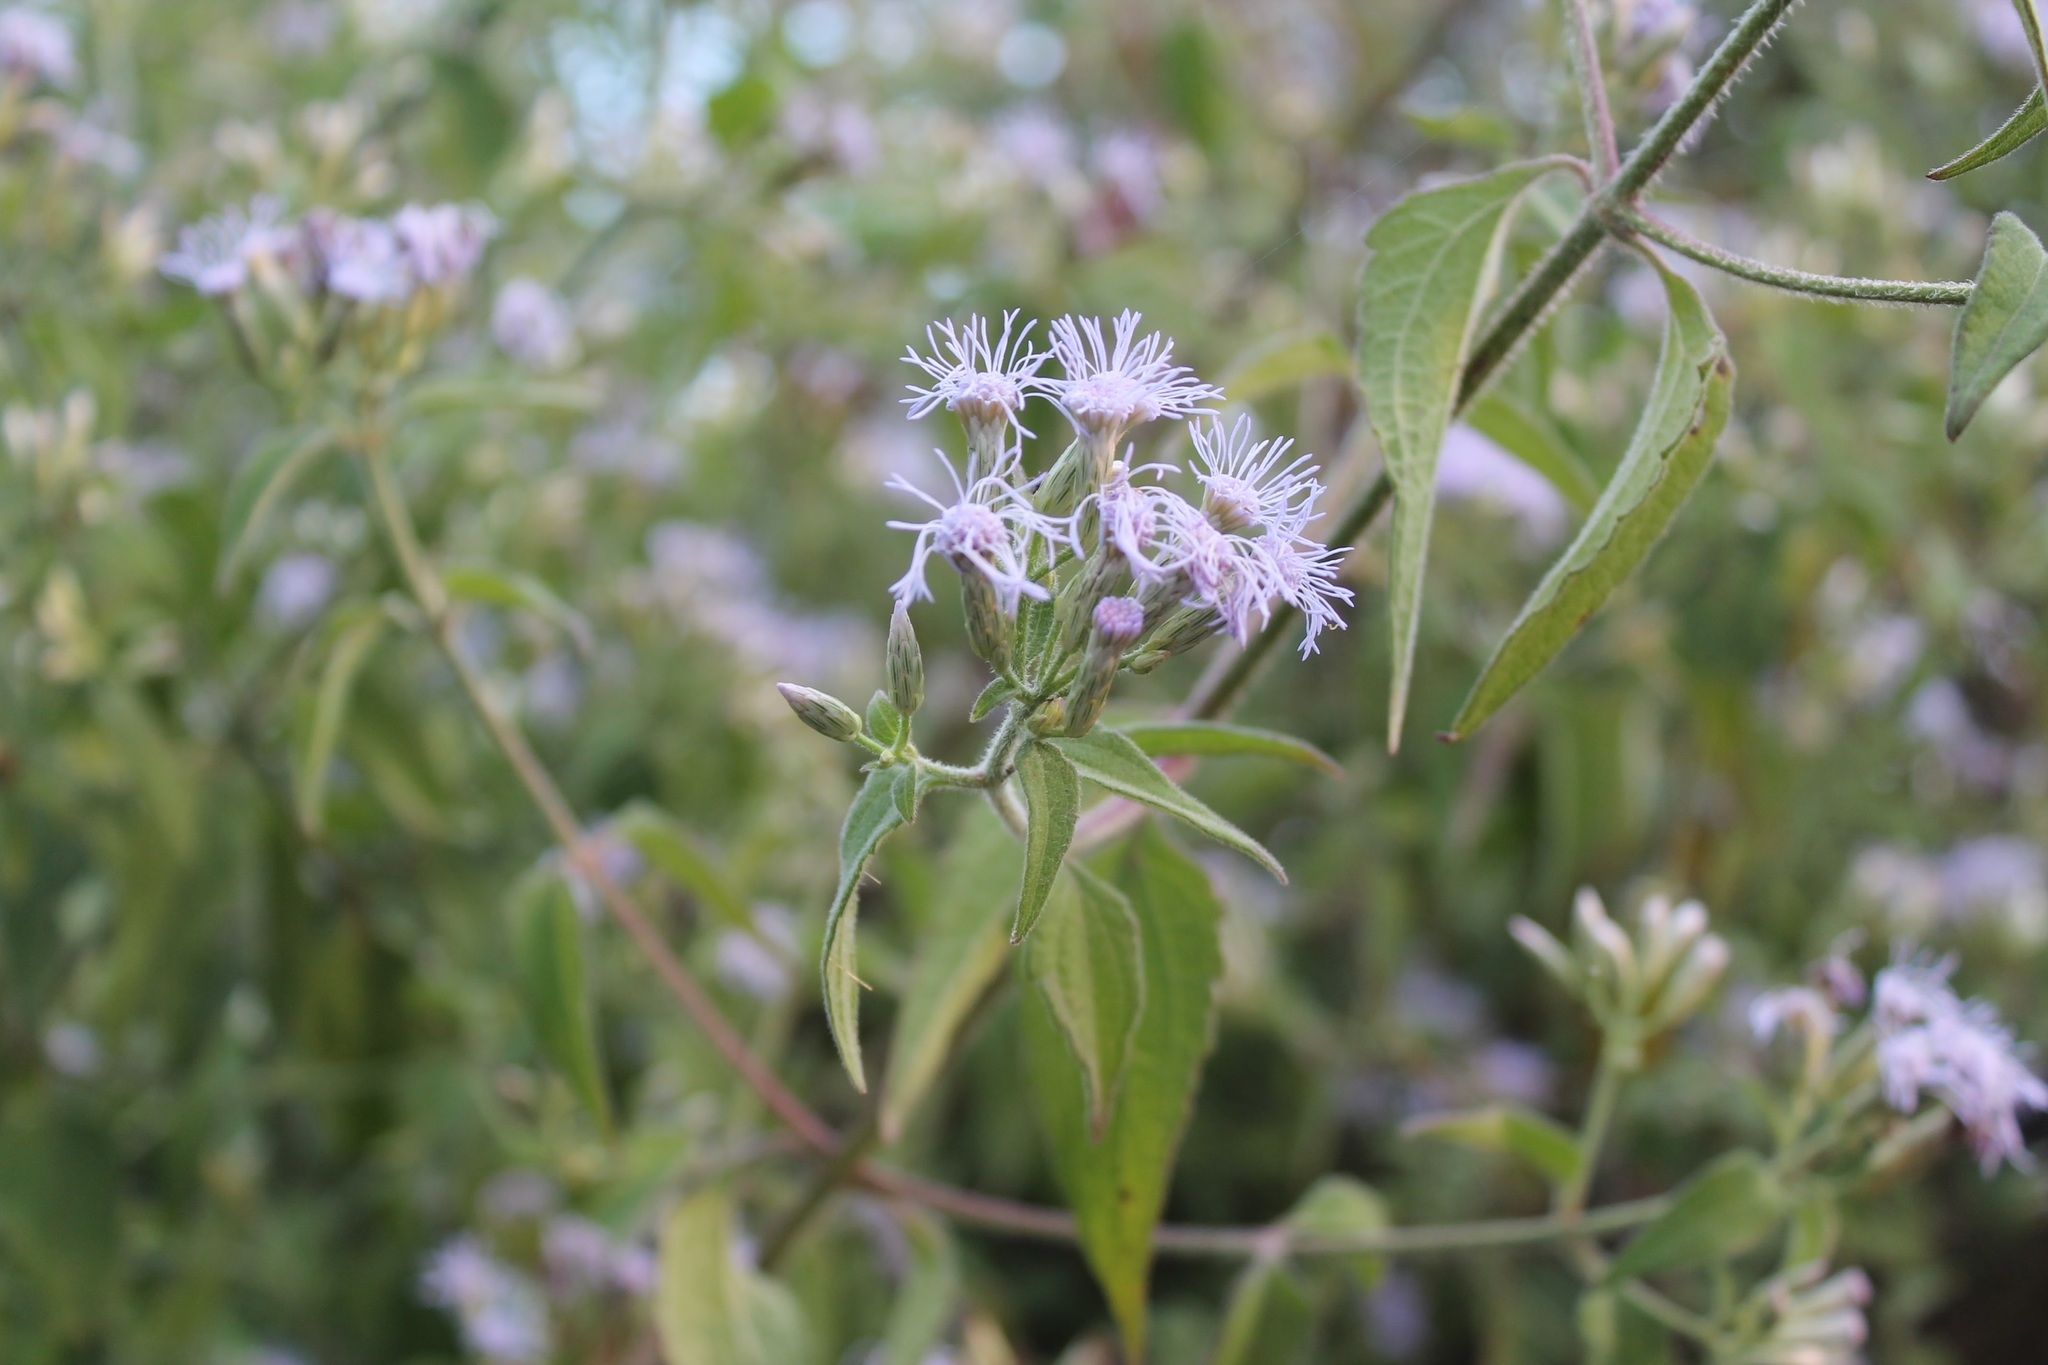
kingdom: Plantae
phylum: Tracheophyta
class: Magnoliopsida
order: Asterales
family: Asteraceae
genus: Chromolaena
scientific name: Chromolaena odorata
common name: Siamweed
